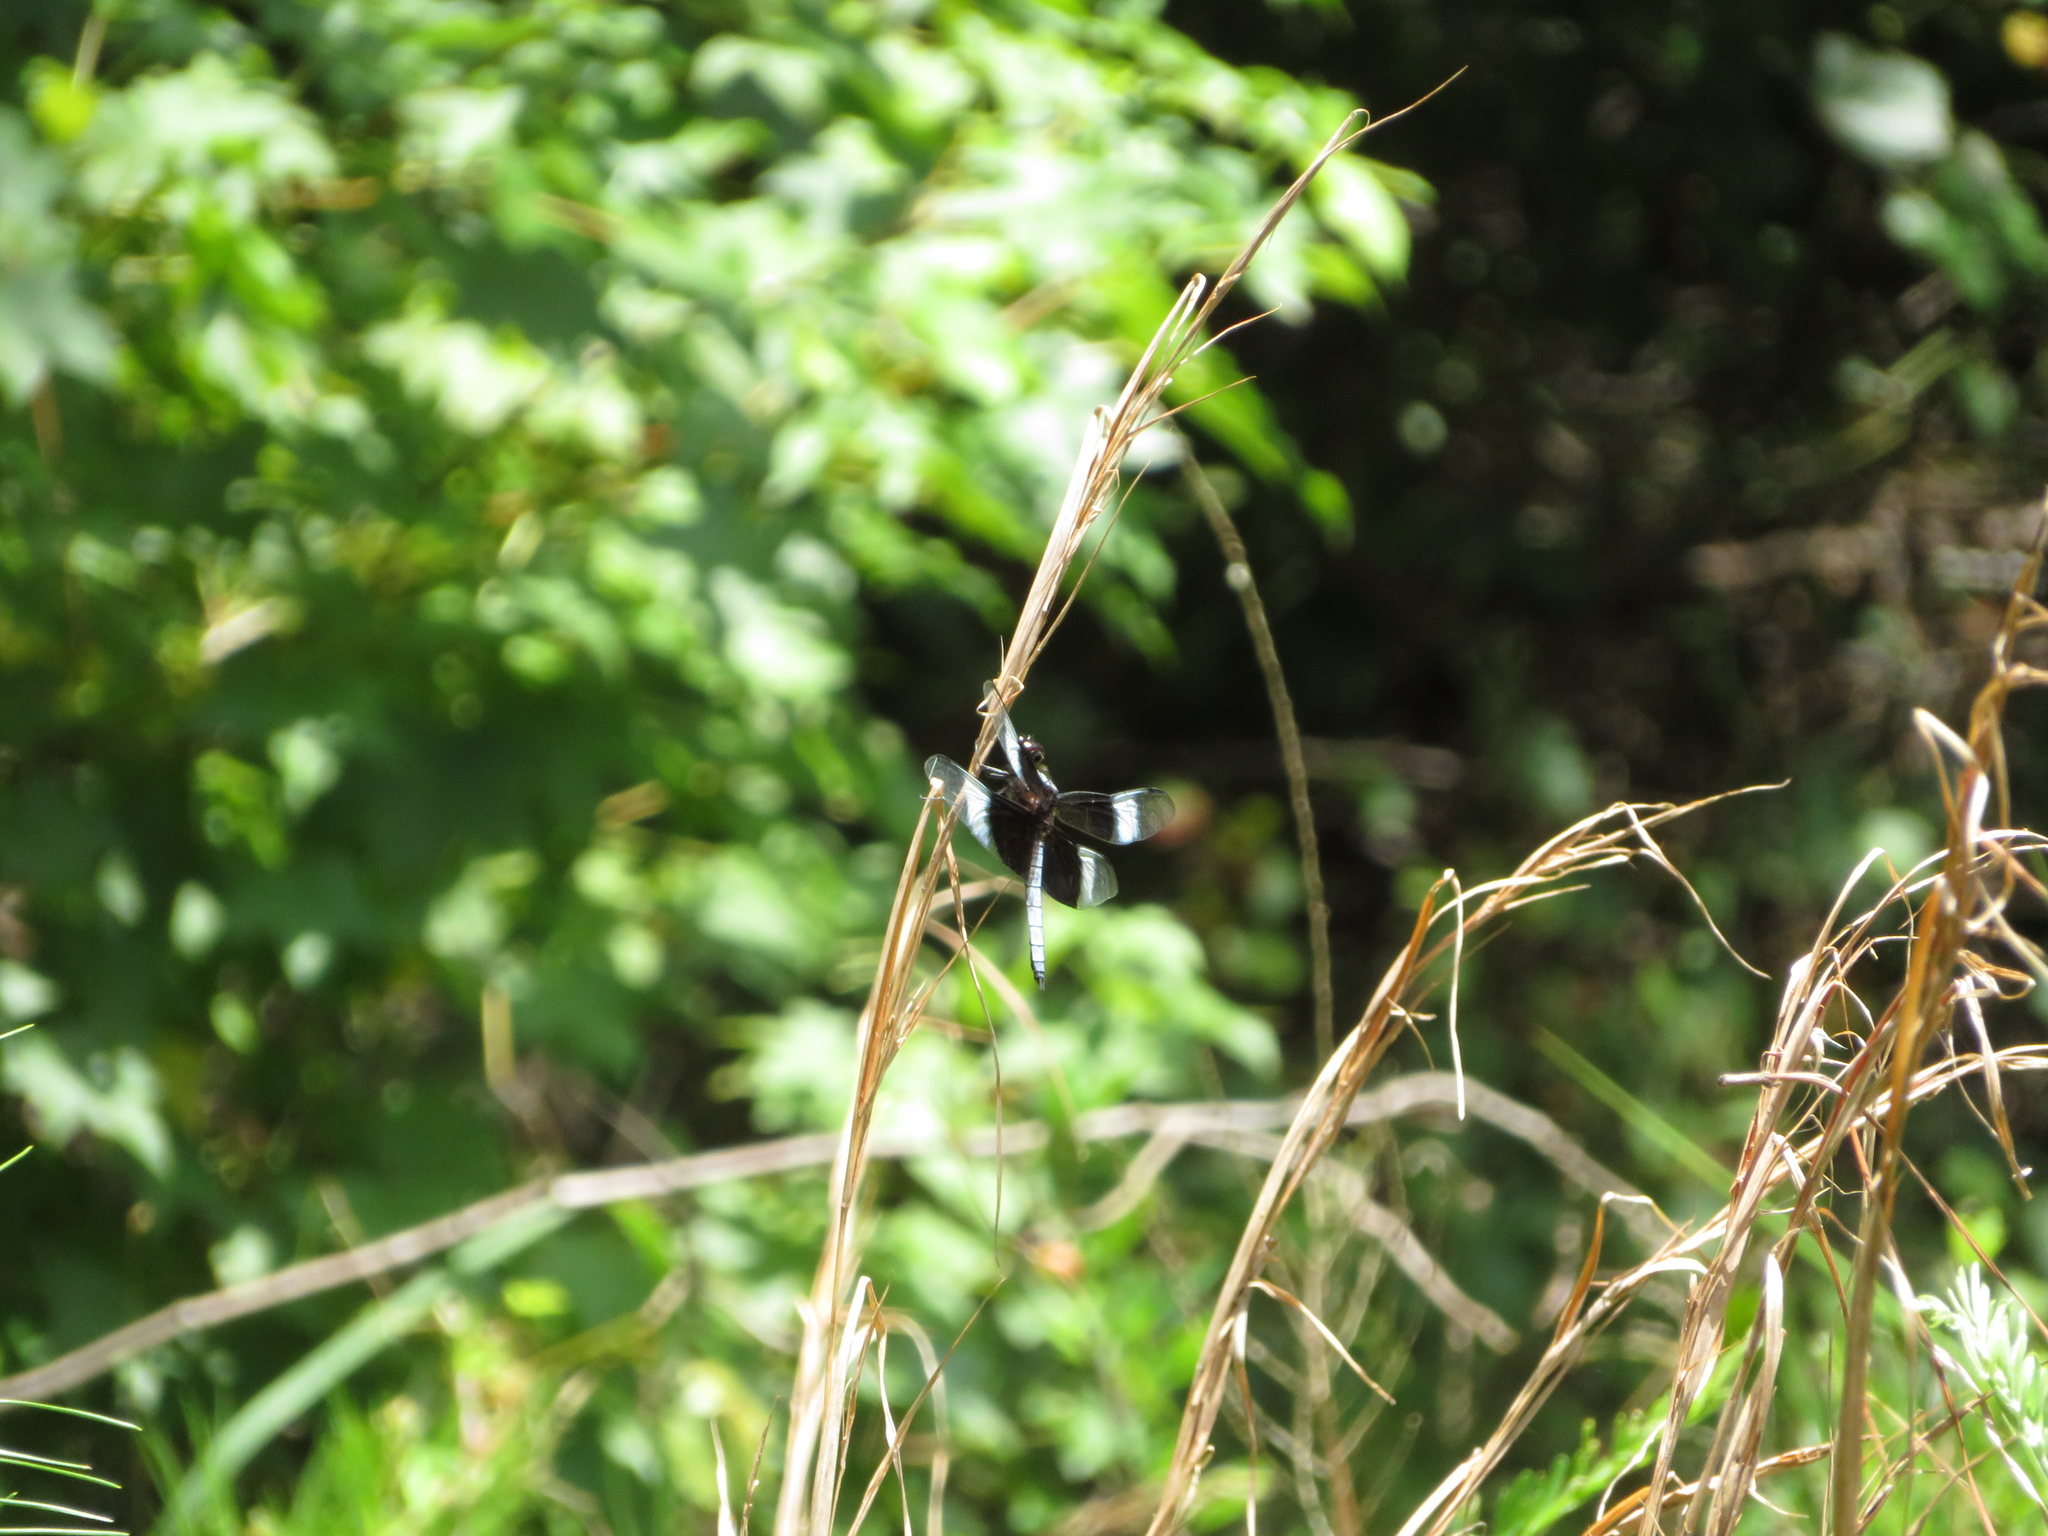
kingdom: Animalia
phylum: Arthropoda
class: Insecta
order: Odonata
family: Libellulidae
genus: Libellula
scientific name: Libellula luctuosa
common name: Widow skimmer
